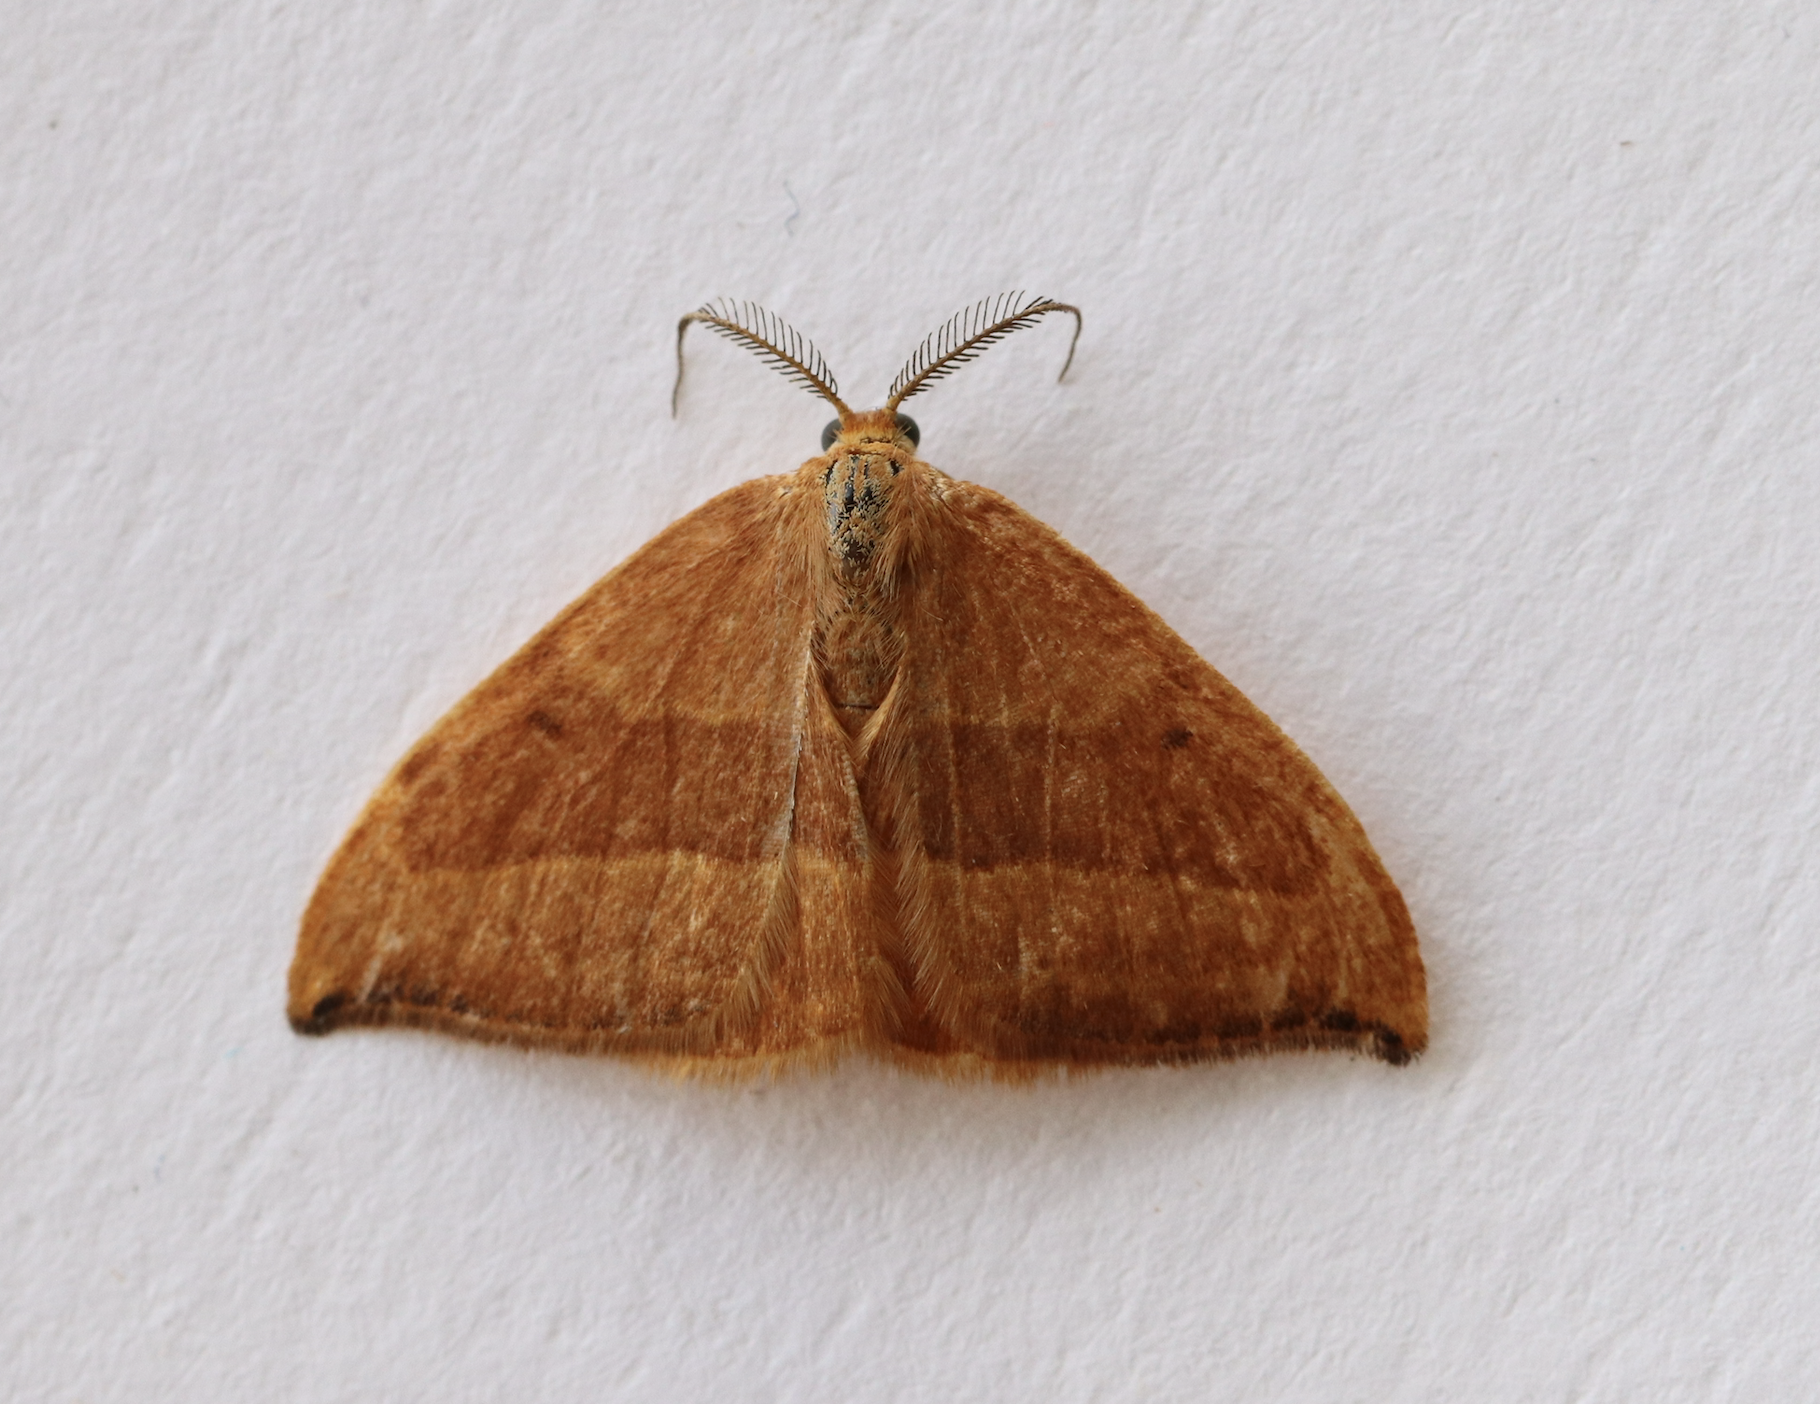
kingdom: Animalia
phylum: Arthropoda
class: Insecta
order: Lepidoptera
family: Drepanidae
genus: Watsonalla
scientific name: Watsonalla cultraria
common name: Barred hook-tip
